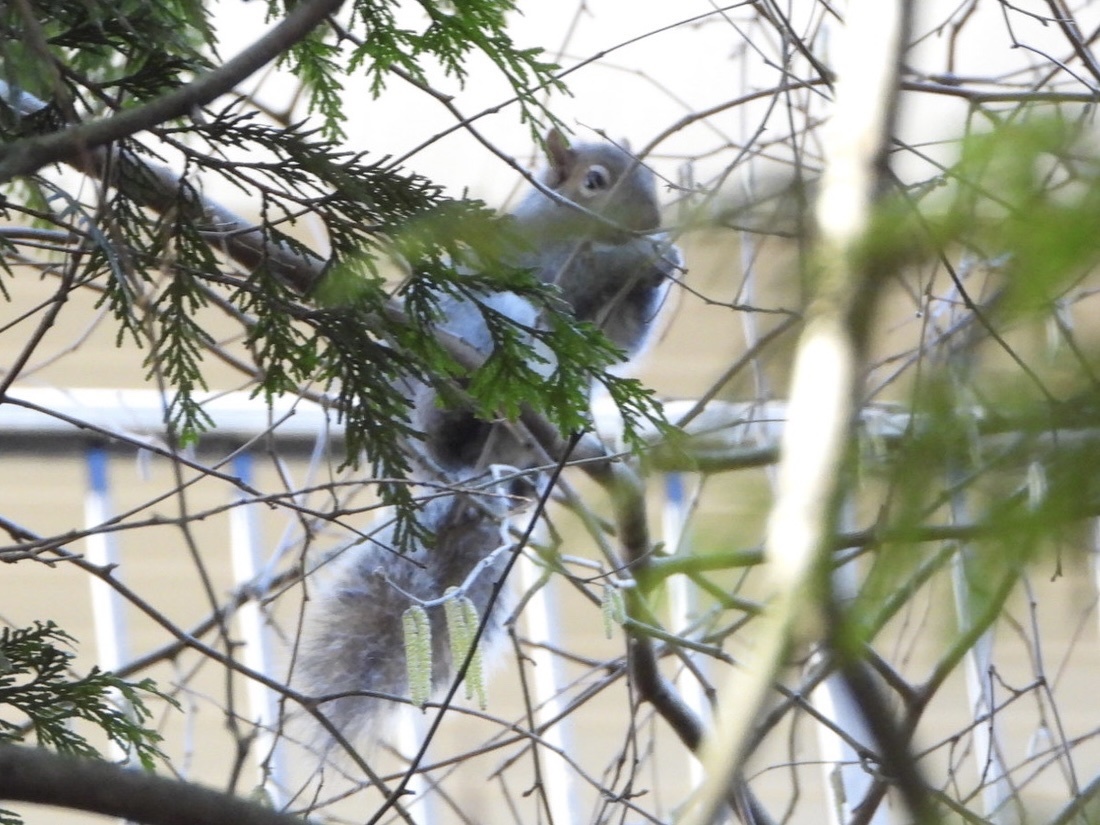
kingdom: Animalia
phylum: Chordata
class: Mammalia
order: Rodentia
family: Sciuridae
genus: Sciurus
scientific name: Sciurus carolinensis
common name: Eastern gray squirrel
